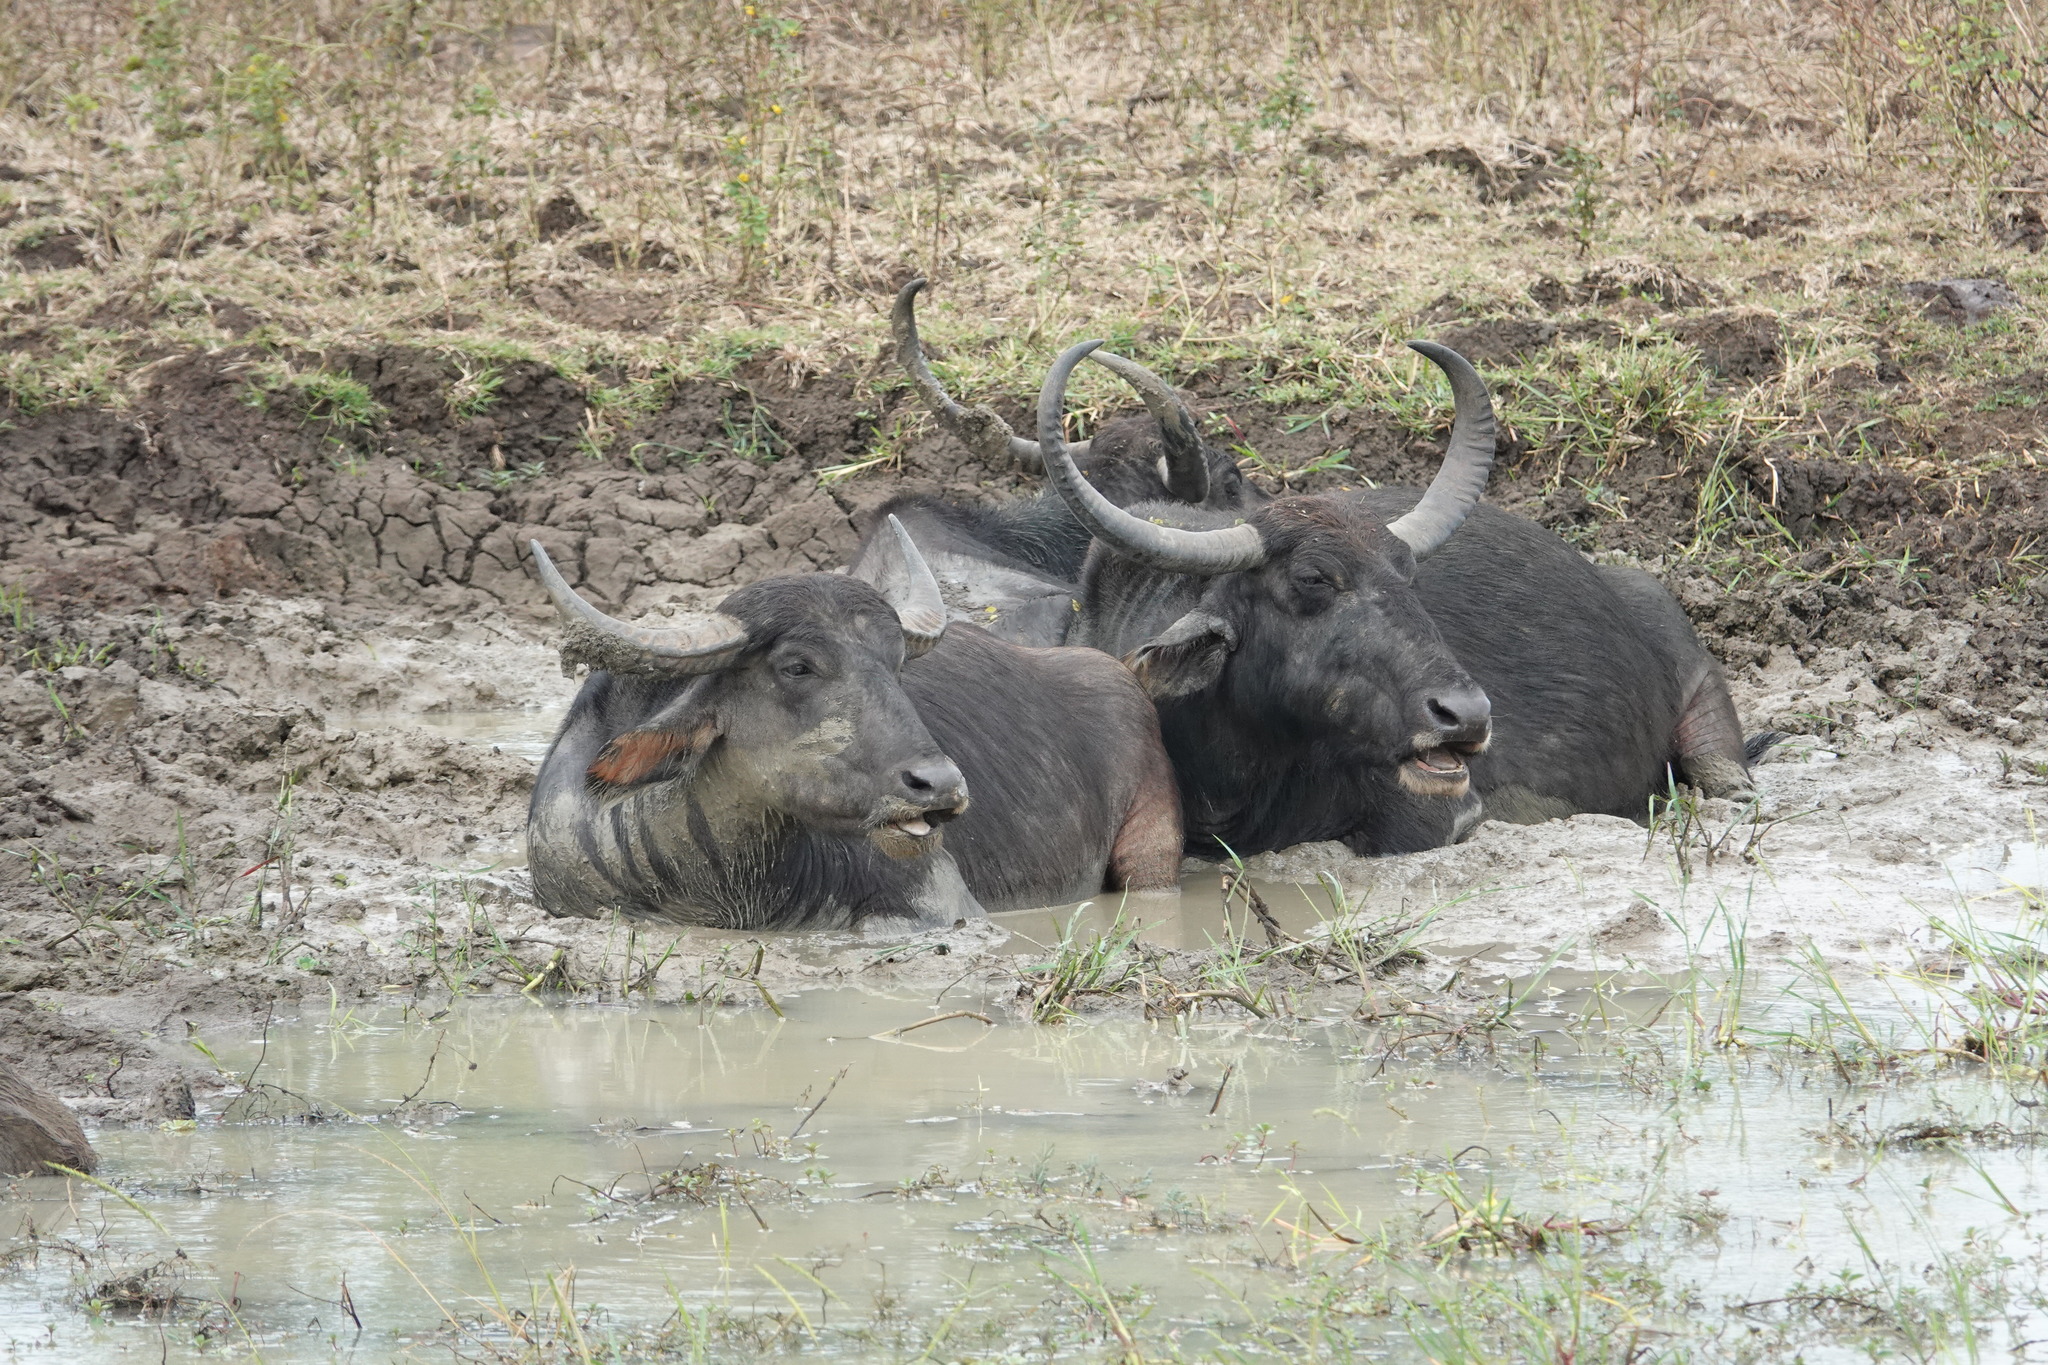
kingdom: Animalia
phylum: Chordata
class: Mammalia
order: Artiodactyla
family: Bovidae
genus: Bubalus
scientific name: Bubalus bubalis
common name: Water buffalo
